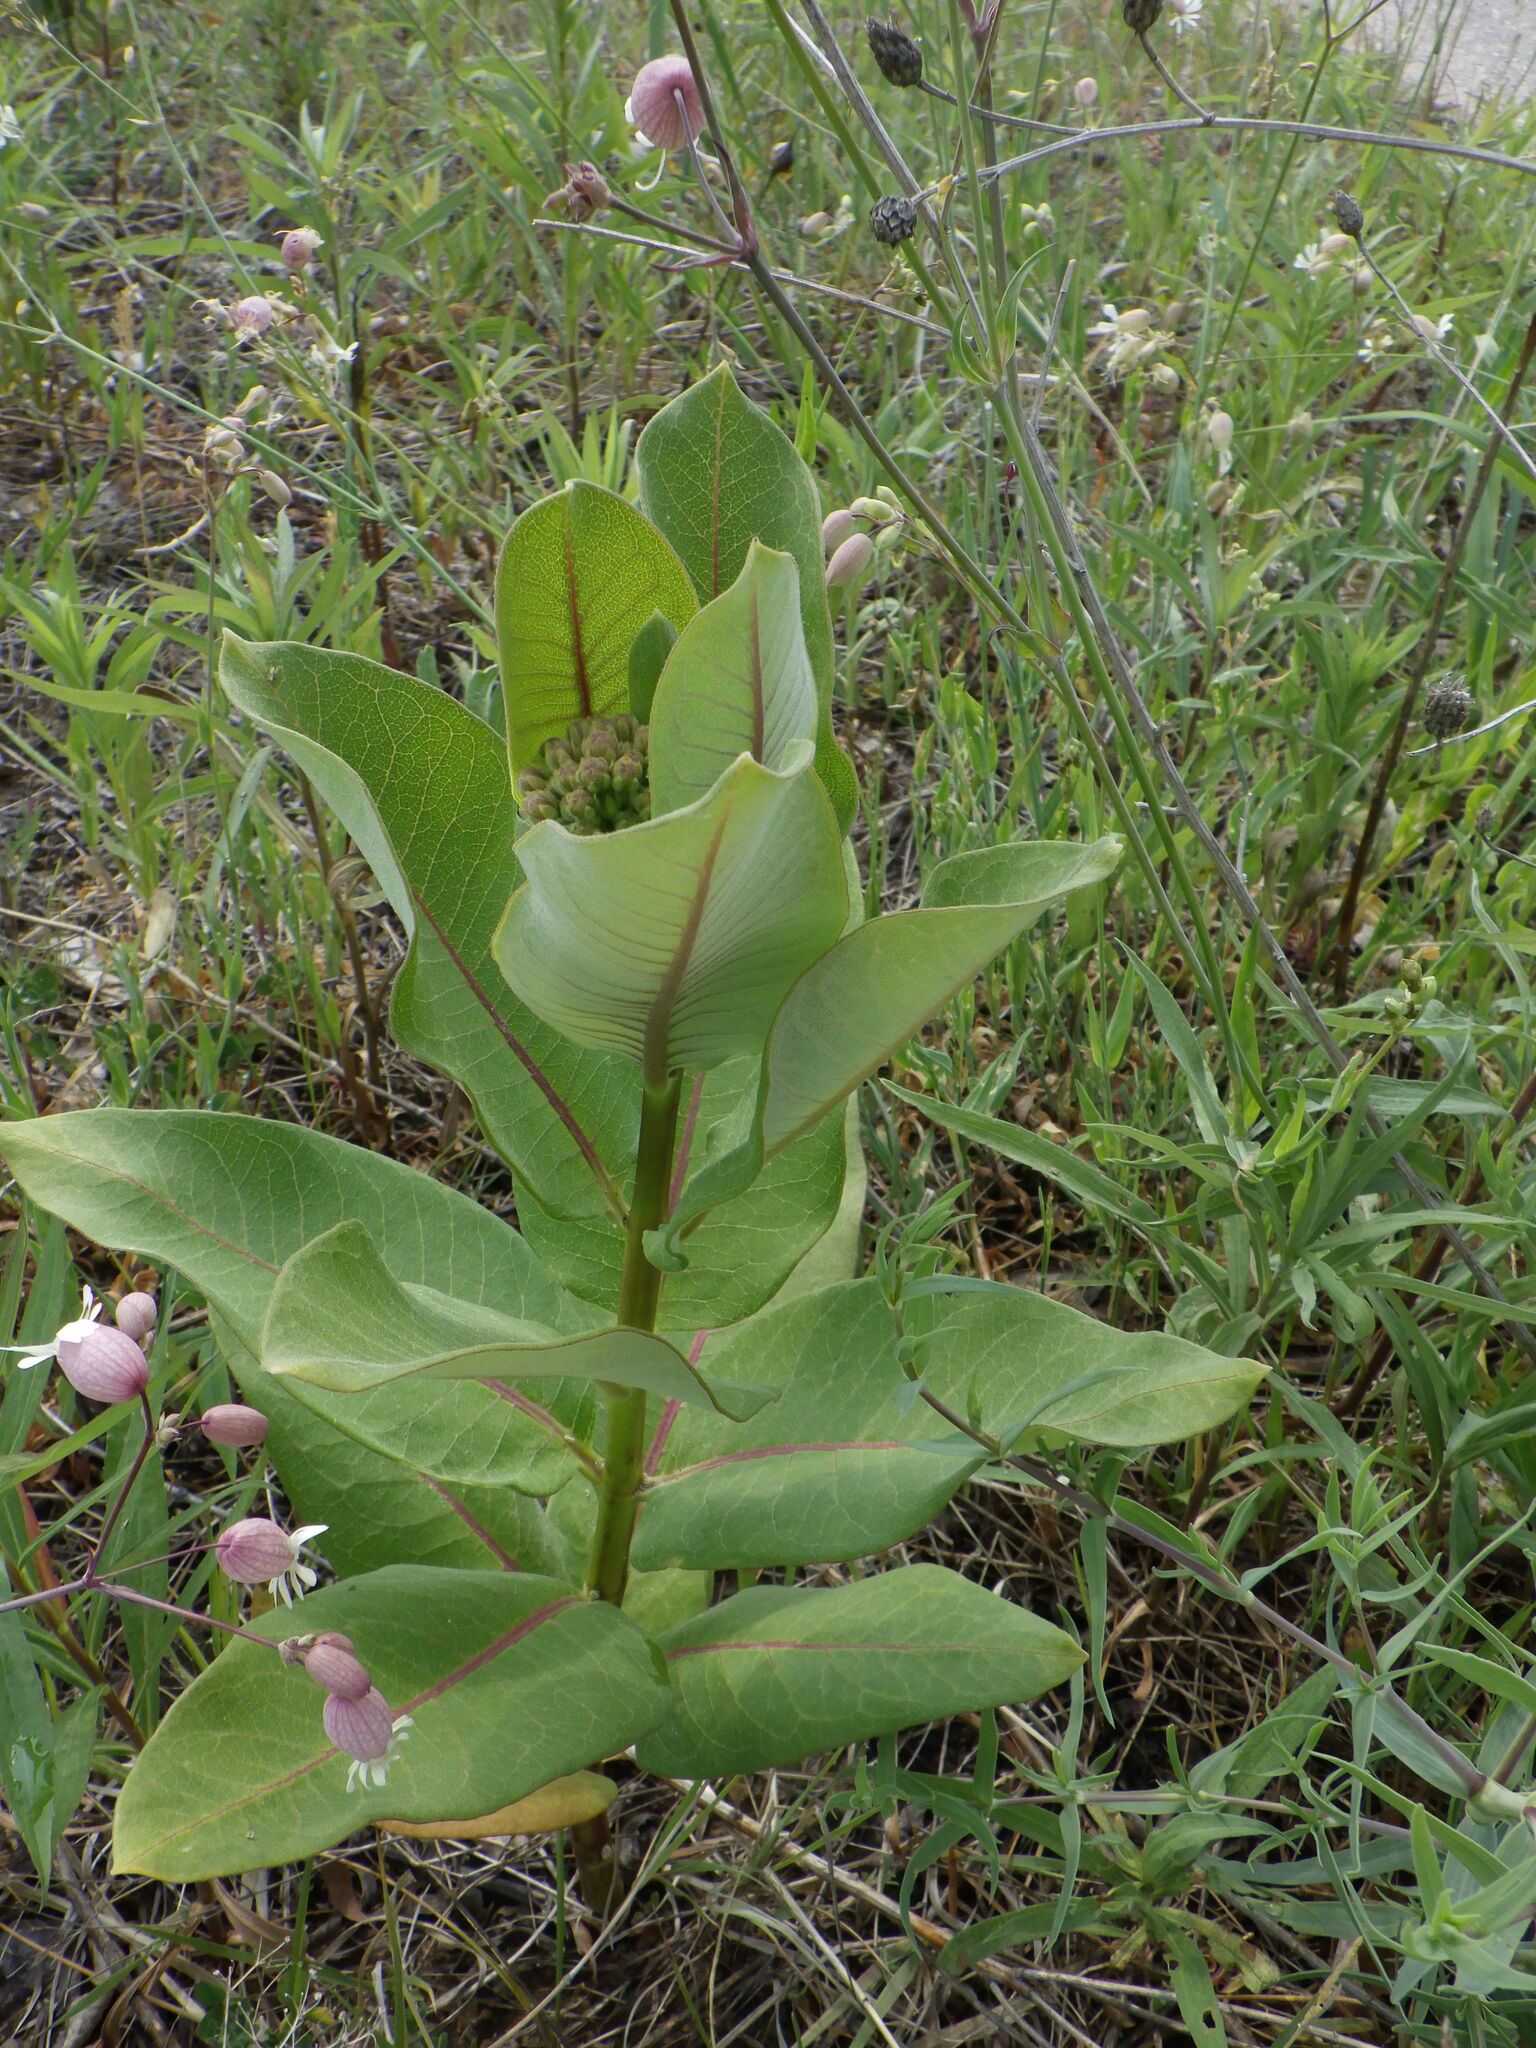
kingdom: Plantae
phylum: Tracheophyta
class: Magnoliopsida
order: Gentianales
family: Apocynaceae
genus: Asclepias
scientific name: Asclepias syriaca
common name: Common milkweed
